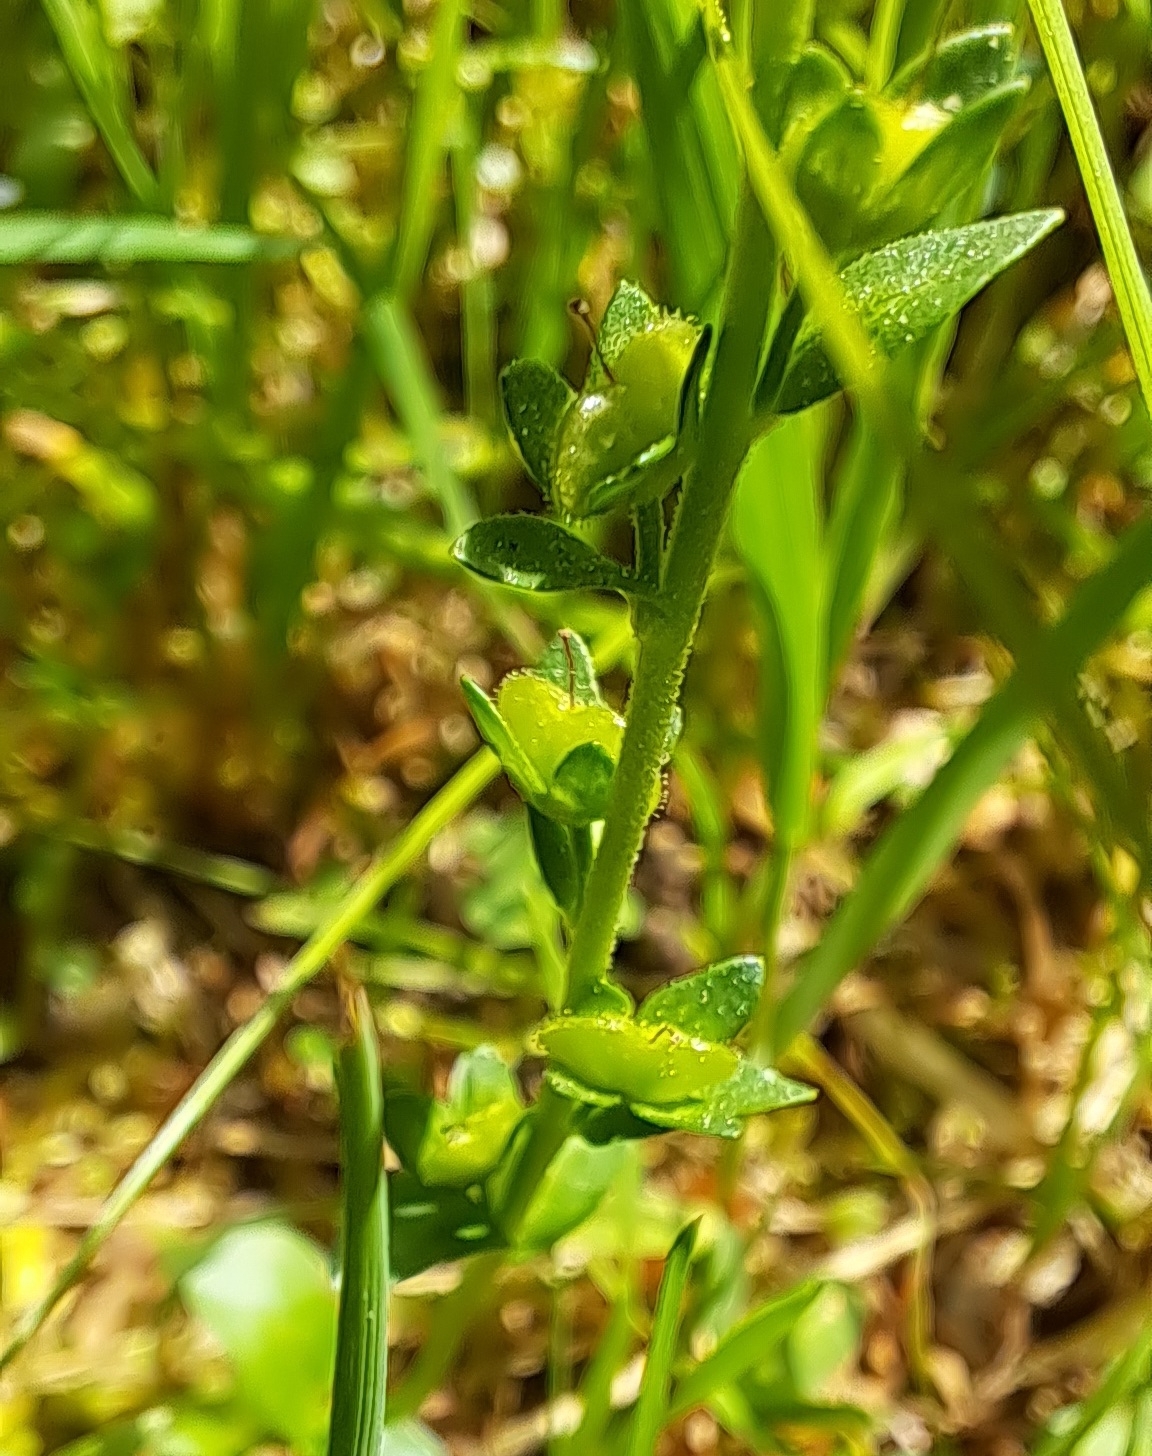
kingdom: Plantae
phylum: Tracheophyta
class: Magnoliopsida
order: Lamiales
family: Plantaginaceae
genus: Veronica
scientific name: Veronica serpyllifolia
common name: Thyme-leaved speedwell
